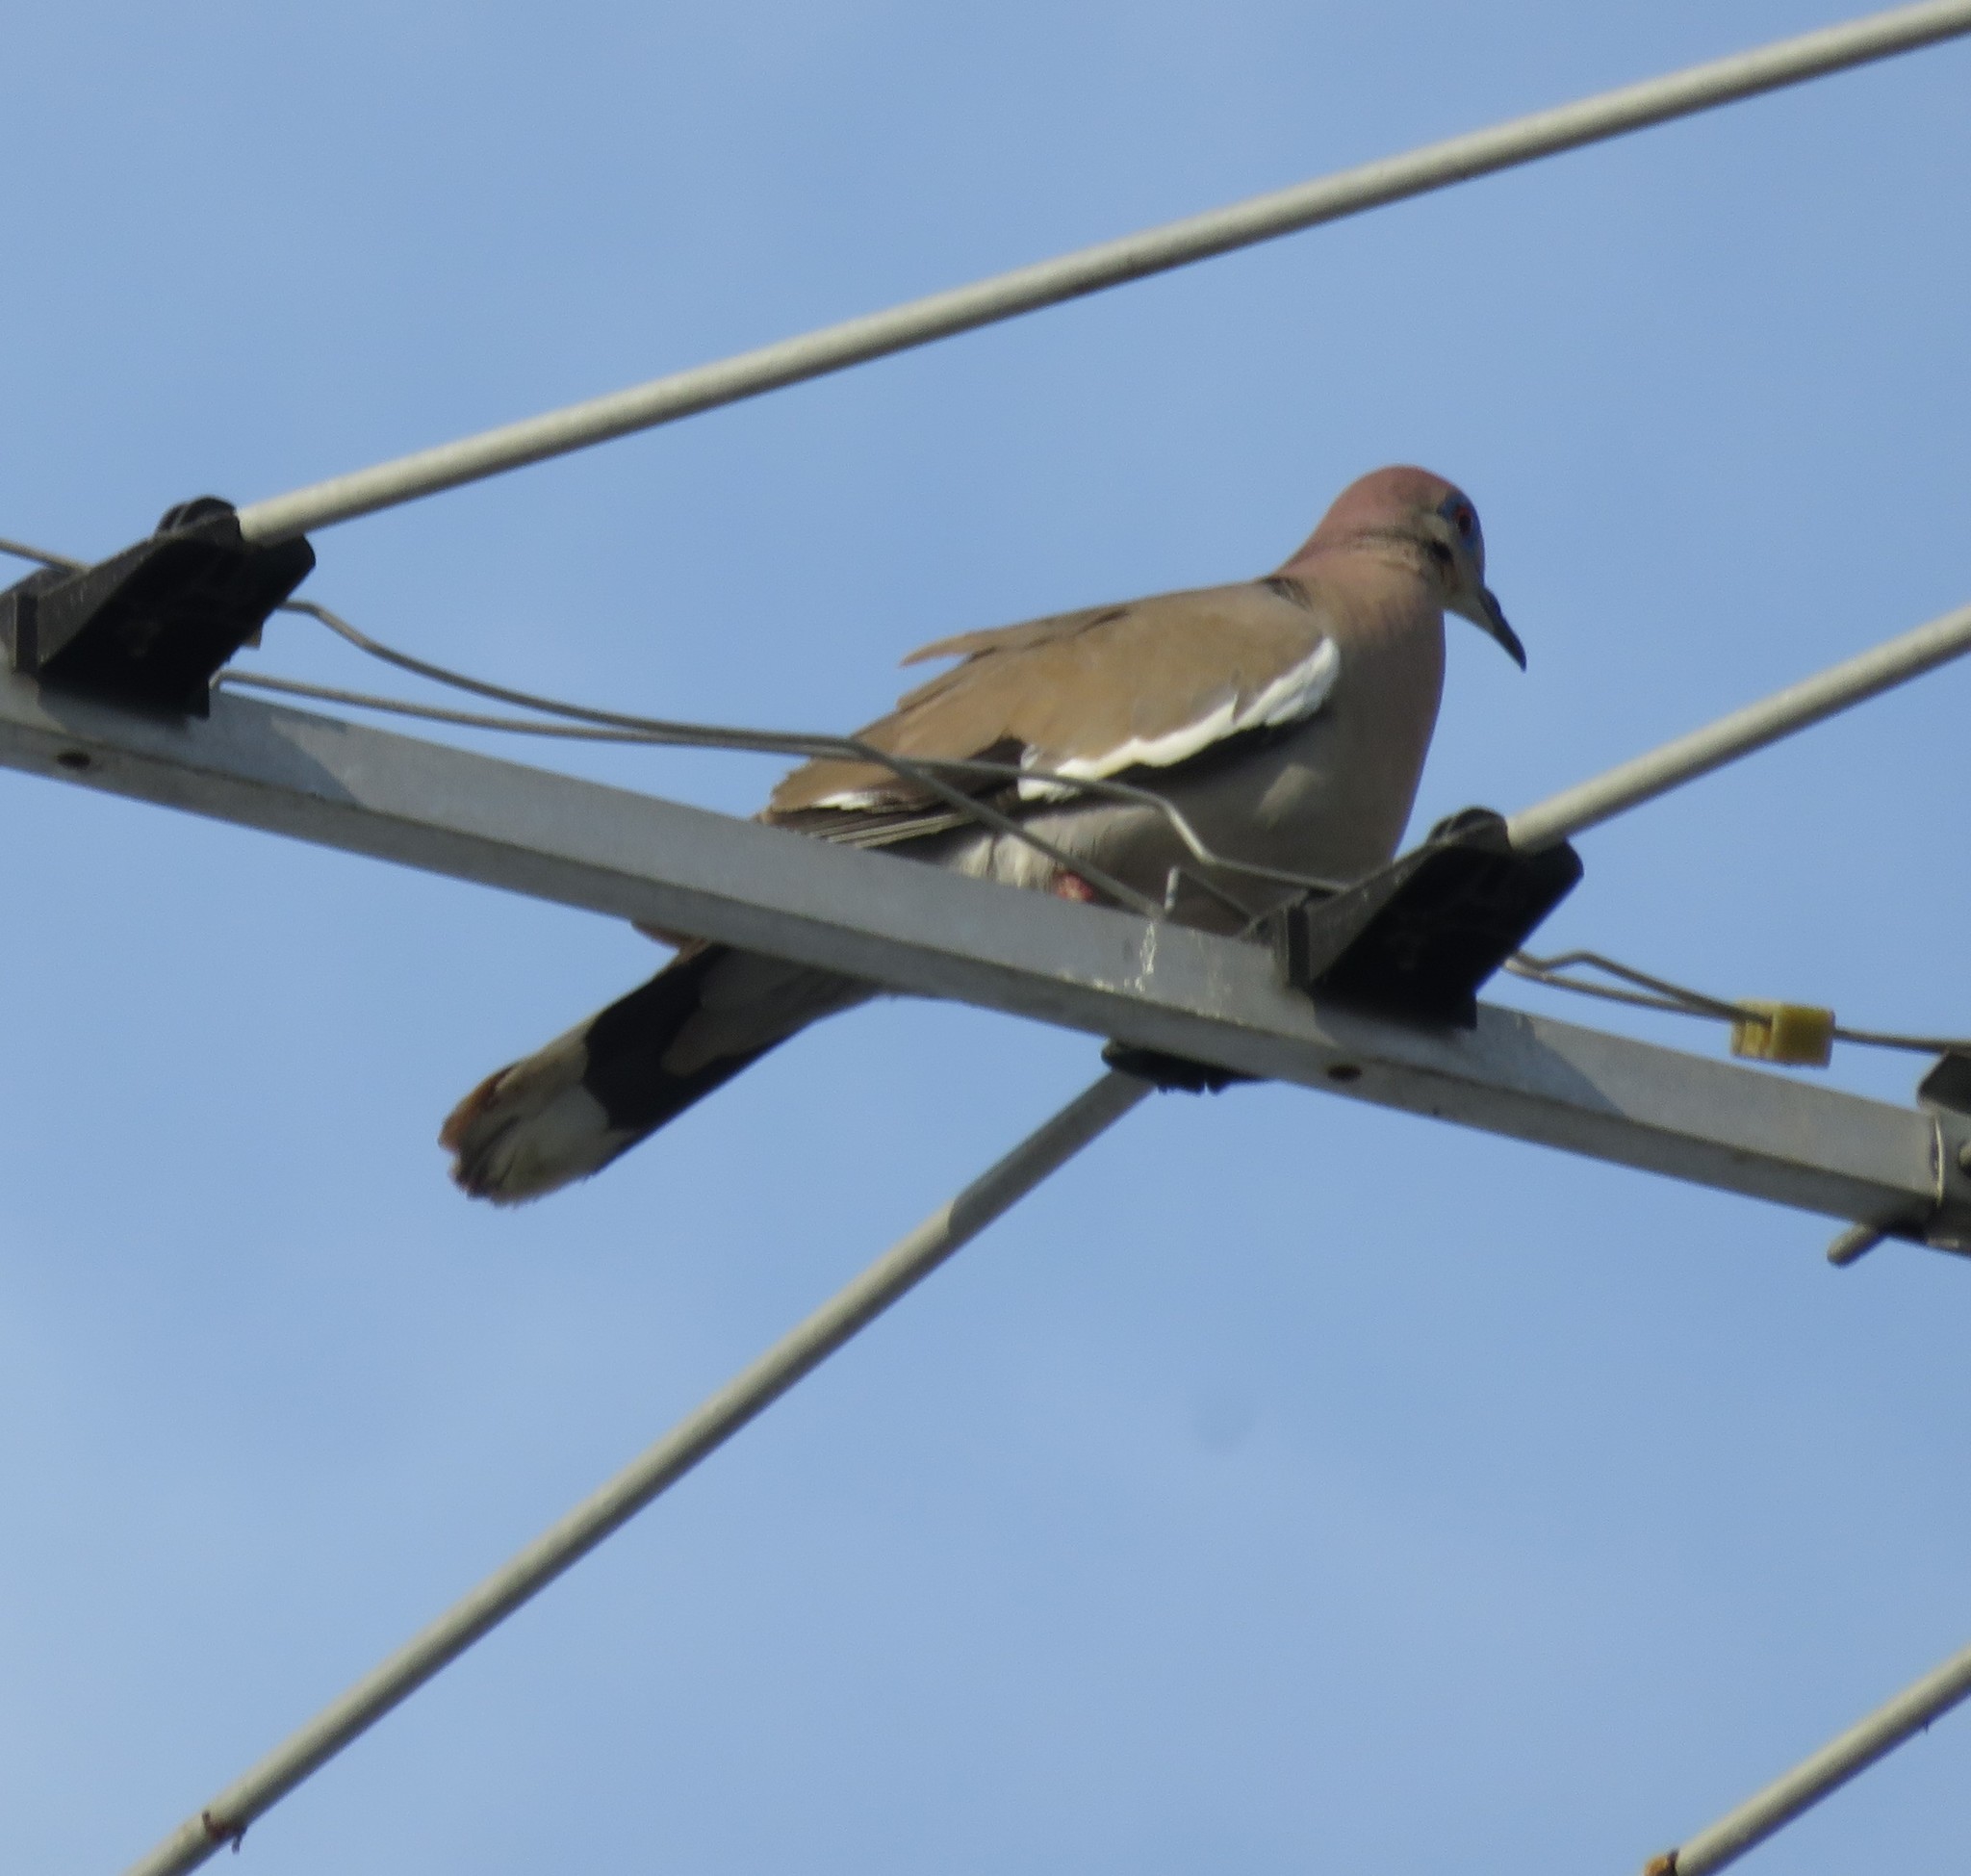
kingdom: Animalia
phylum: Chordata
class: Aves
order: Columbiformes
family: Columbidae
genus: Zenaida
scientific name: Zenaida asiatica
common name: White-winged dove
